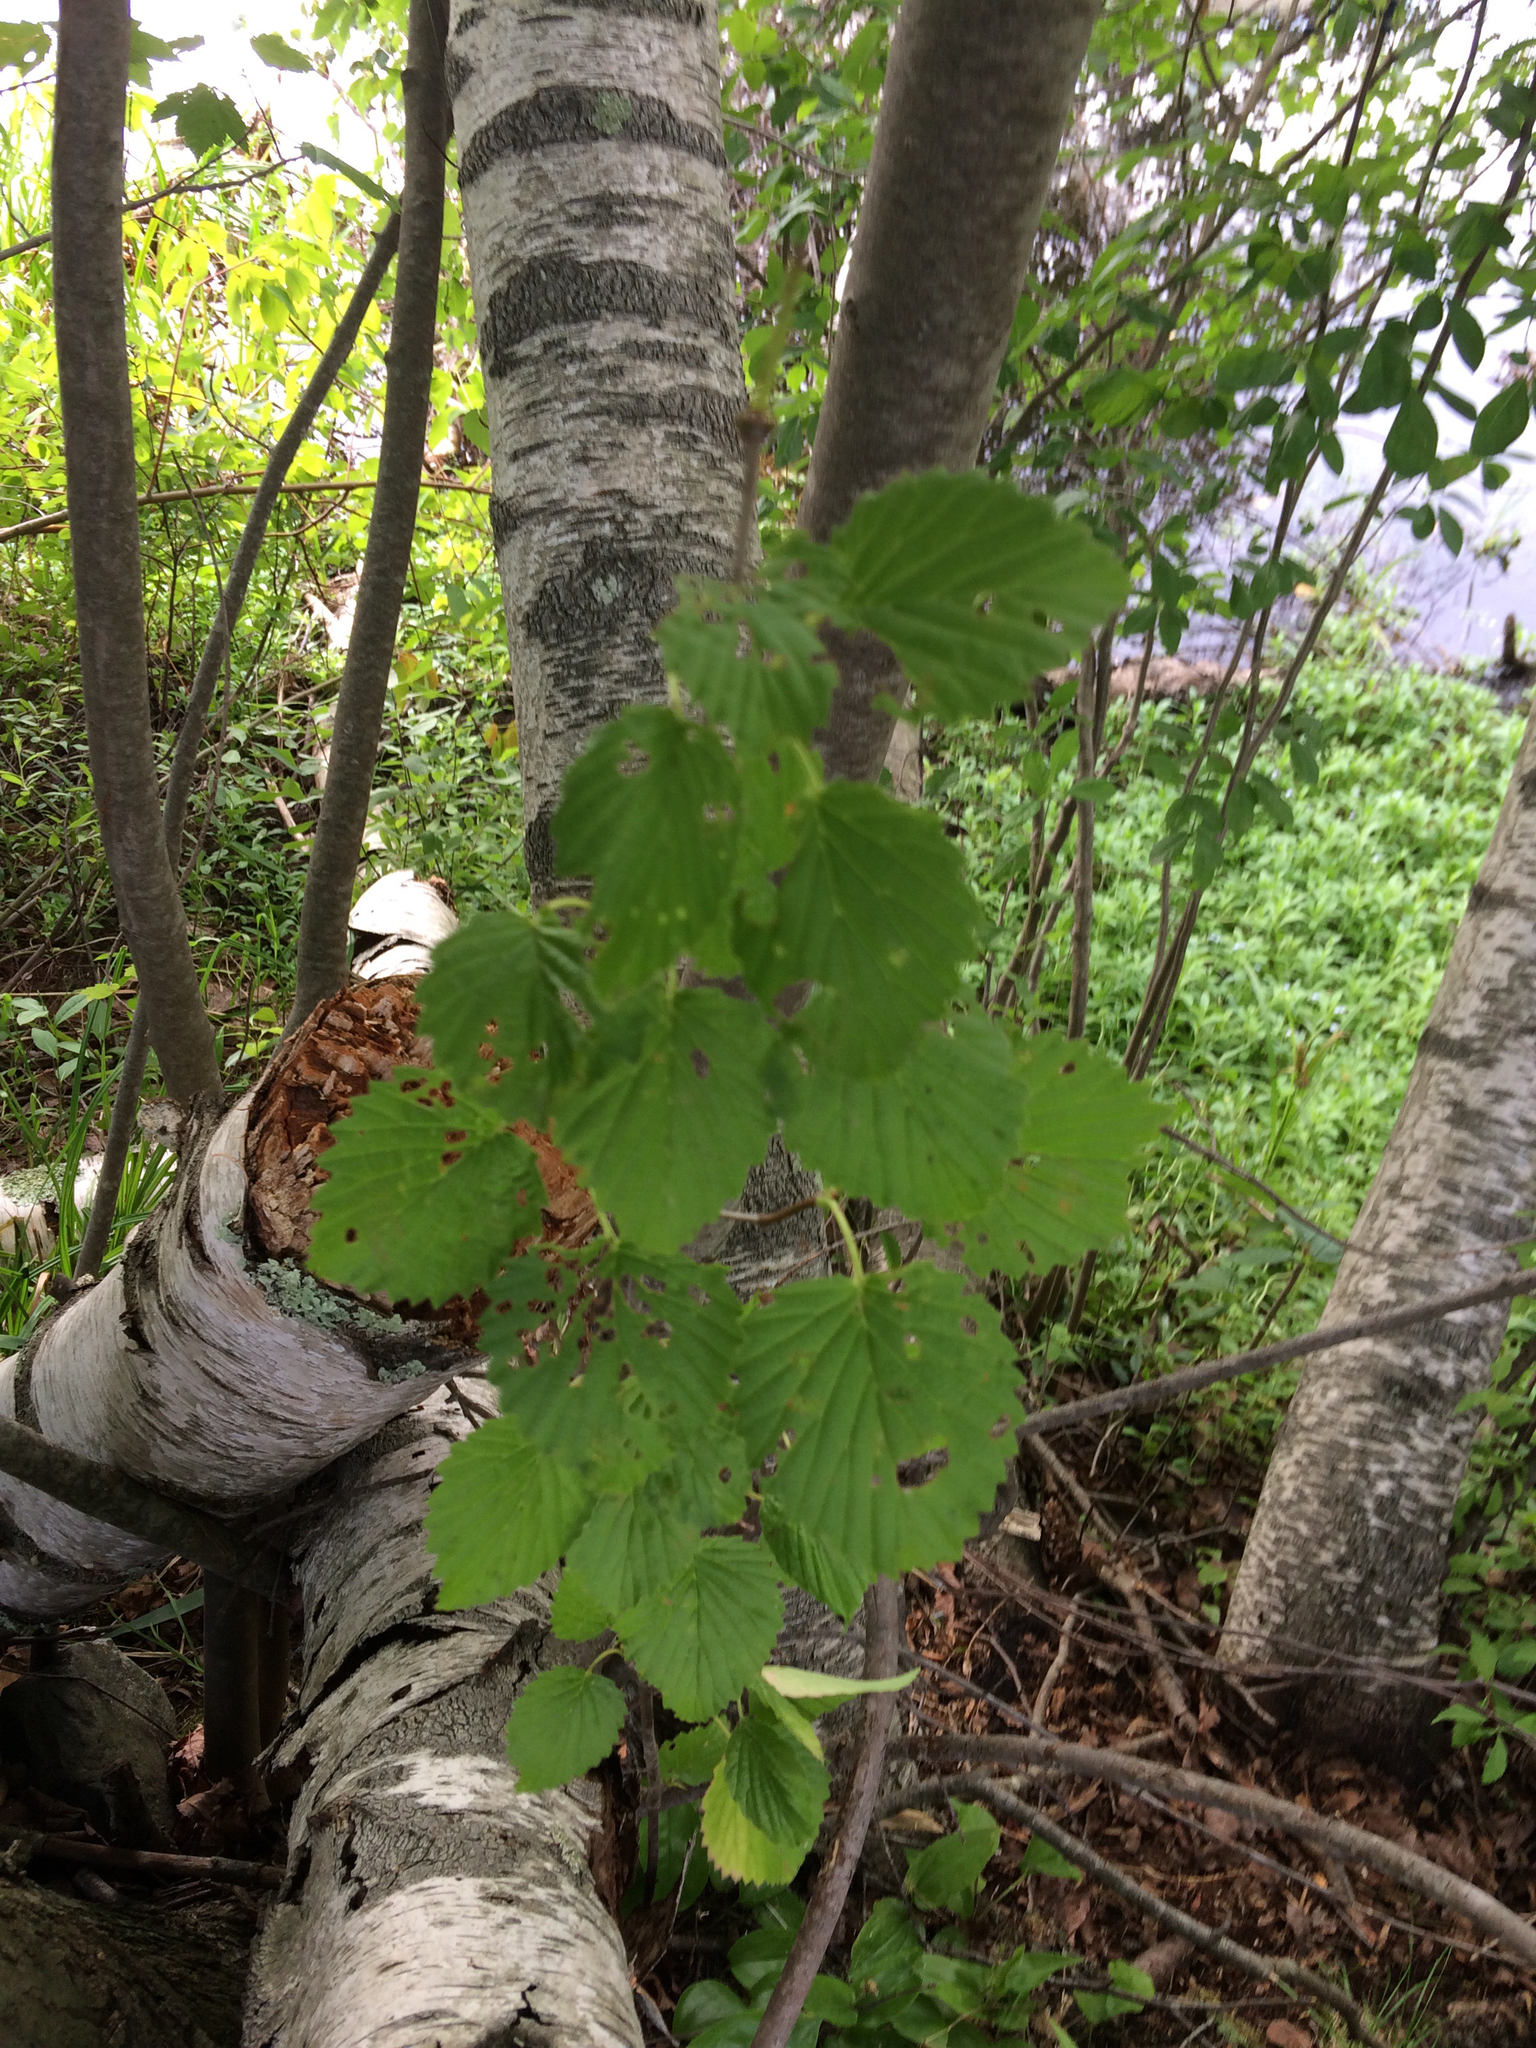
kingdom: Plantae
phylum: Tracheophyta
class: Magnoliopsida
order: Dipsacales
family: Viburnaceae
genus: Viburnum
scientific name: Viburnum dentatum
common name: Arrow-wood
